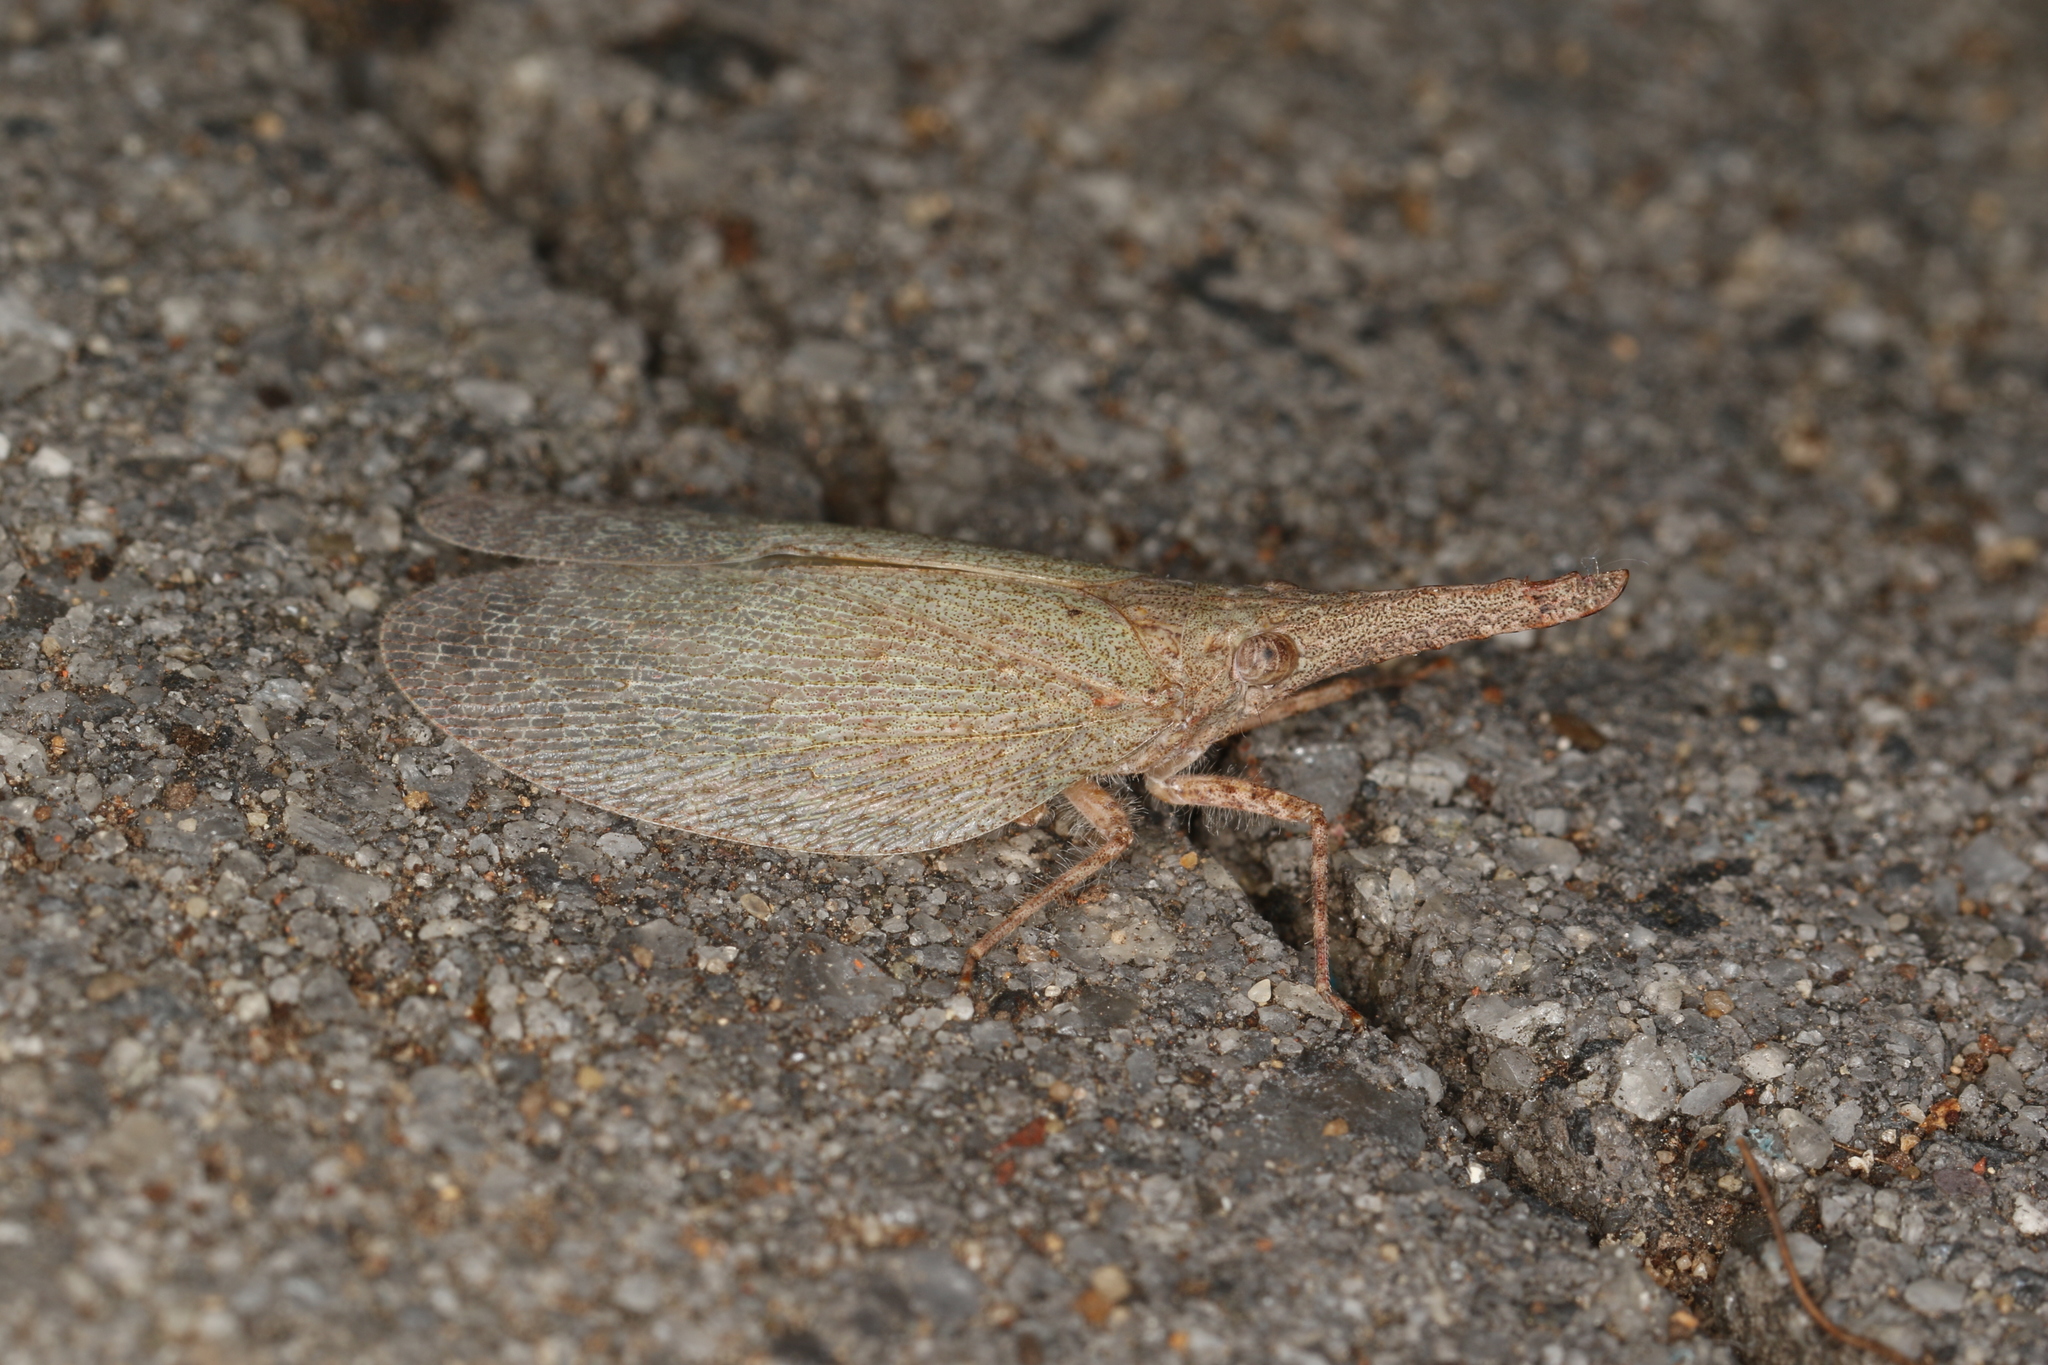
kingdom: Animalia
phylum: Arthropoda
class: Insecta
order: Hemiptera
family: Fulgoridae
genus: Rentinus
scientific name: Rentinus dilatatus
